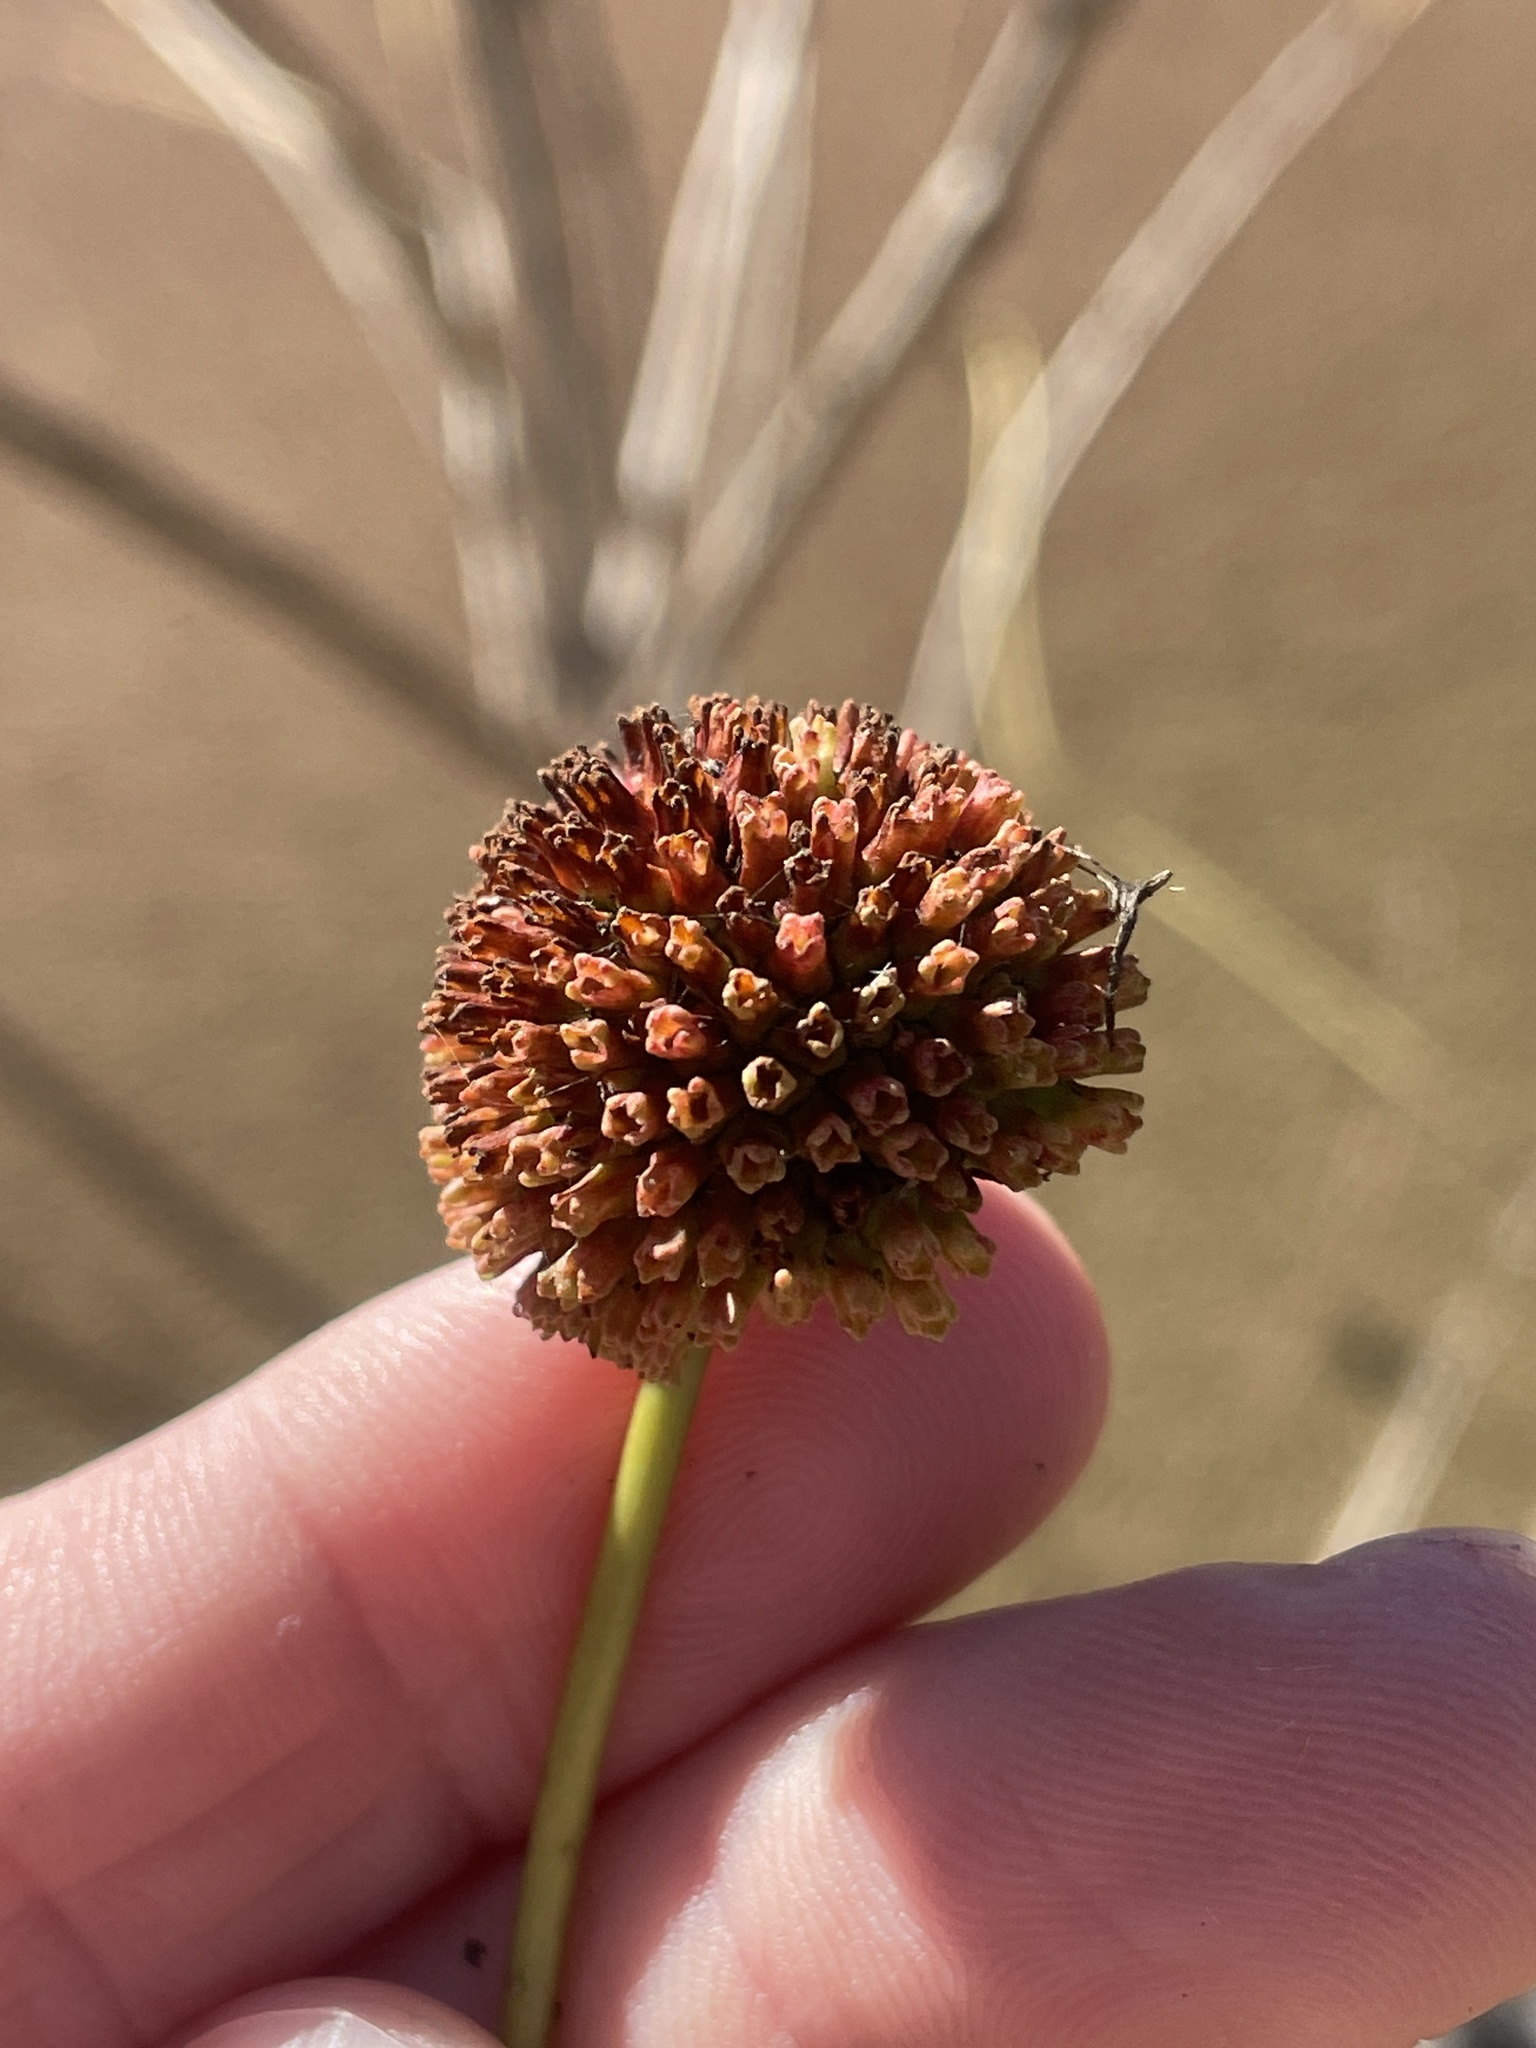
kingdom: Plantae
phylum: Tracheophyta
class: Magnoliopsida
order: Gentianales
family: Rubiaceae
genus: Cephalanthus
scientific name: Cephalanthus occidentalis
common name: Button-willow
